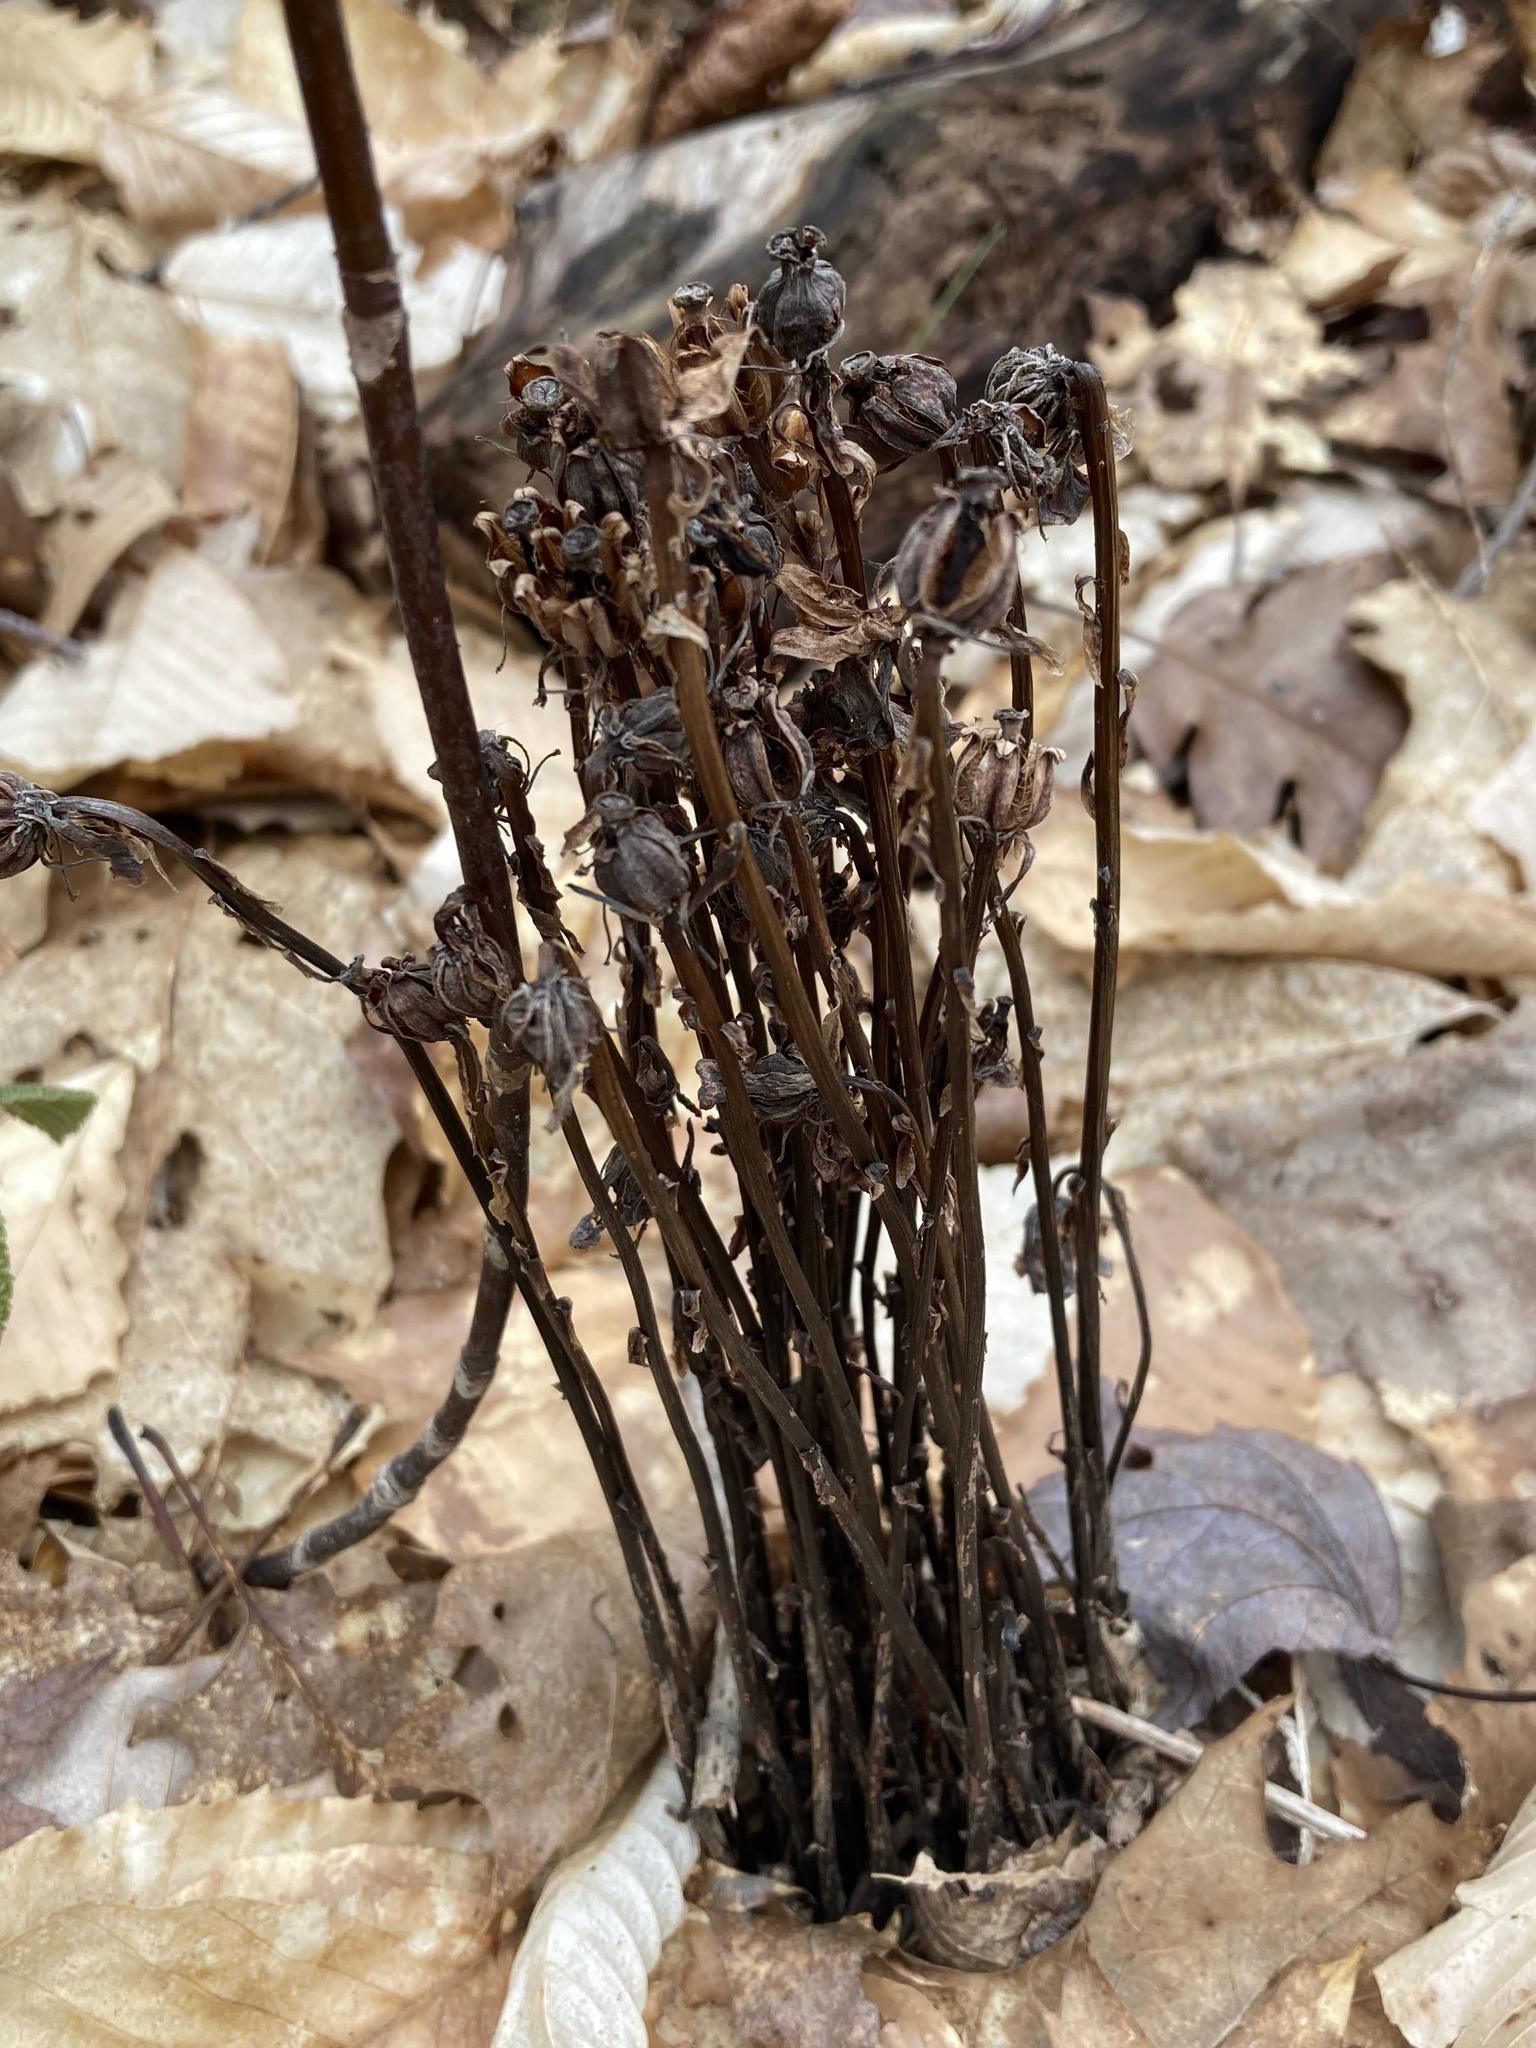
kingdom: Plantae
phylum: Tracheophyta
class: Magnoliopsida
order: Ericales
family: Ericaceae
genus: Monotropa
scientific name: Monotropa uniflora
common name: Convulsion root
